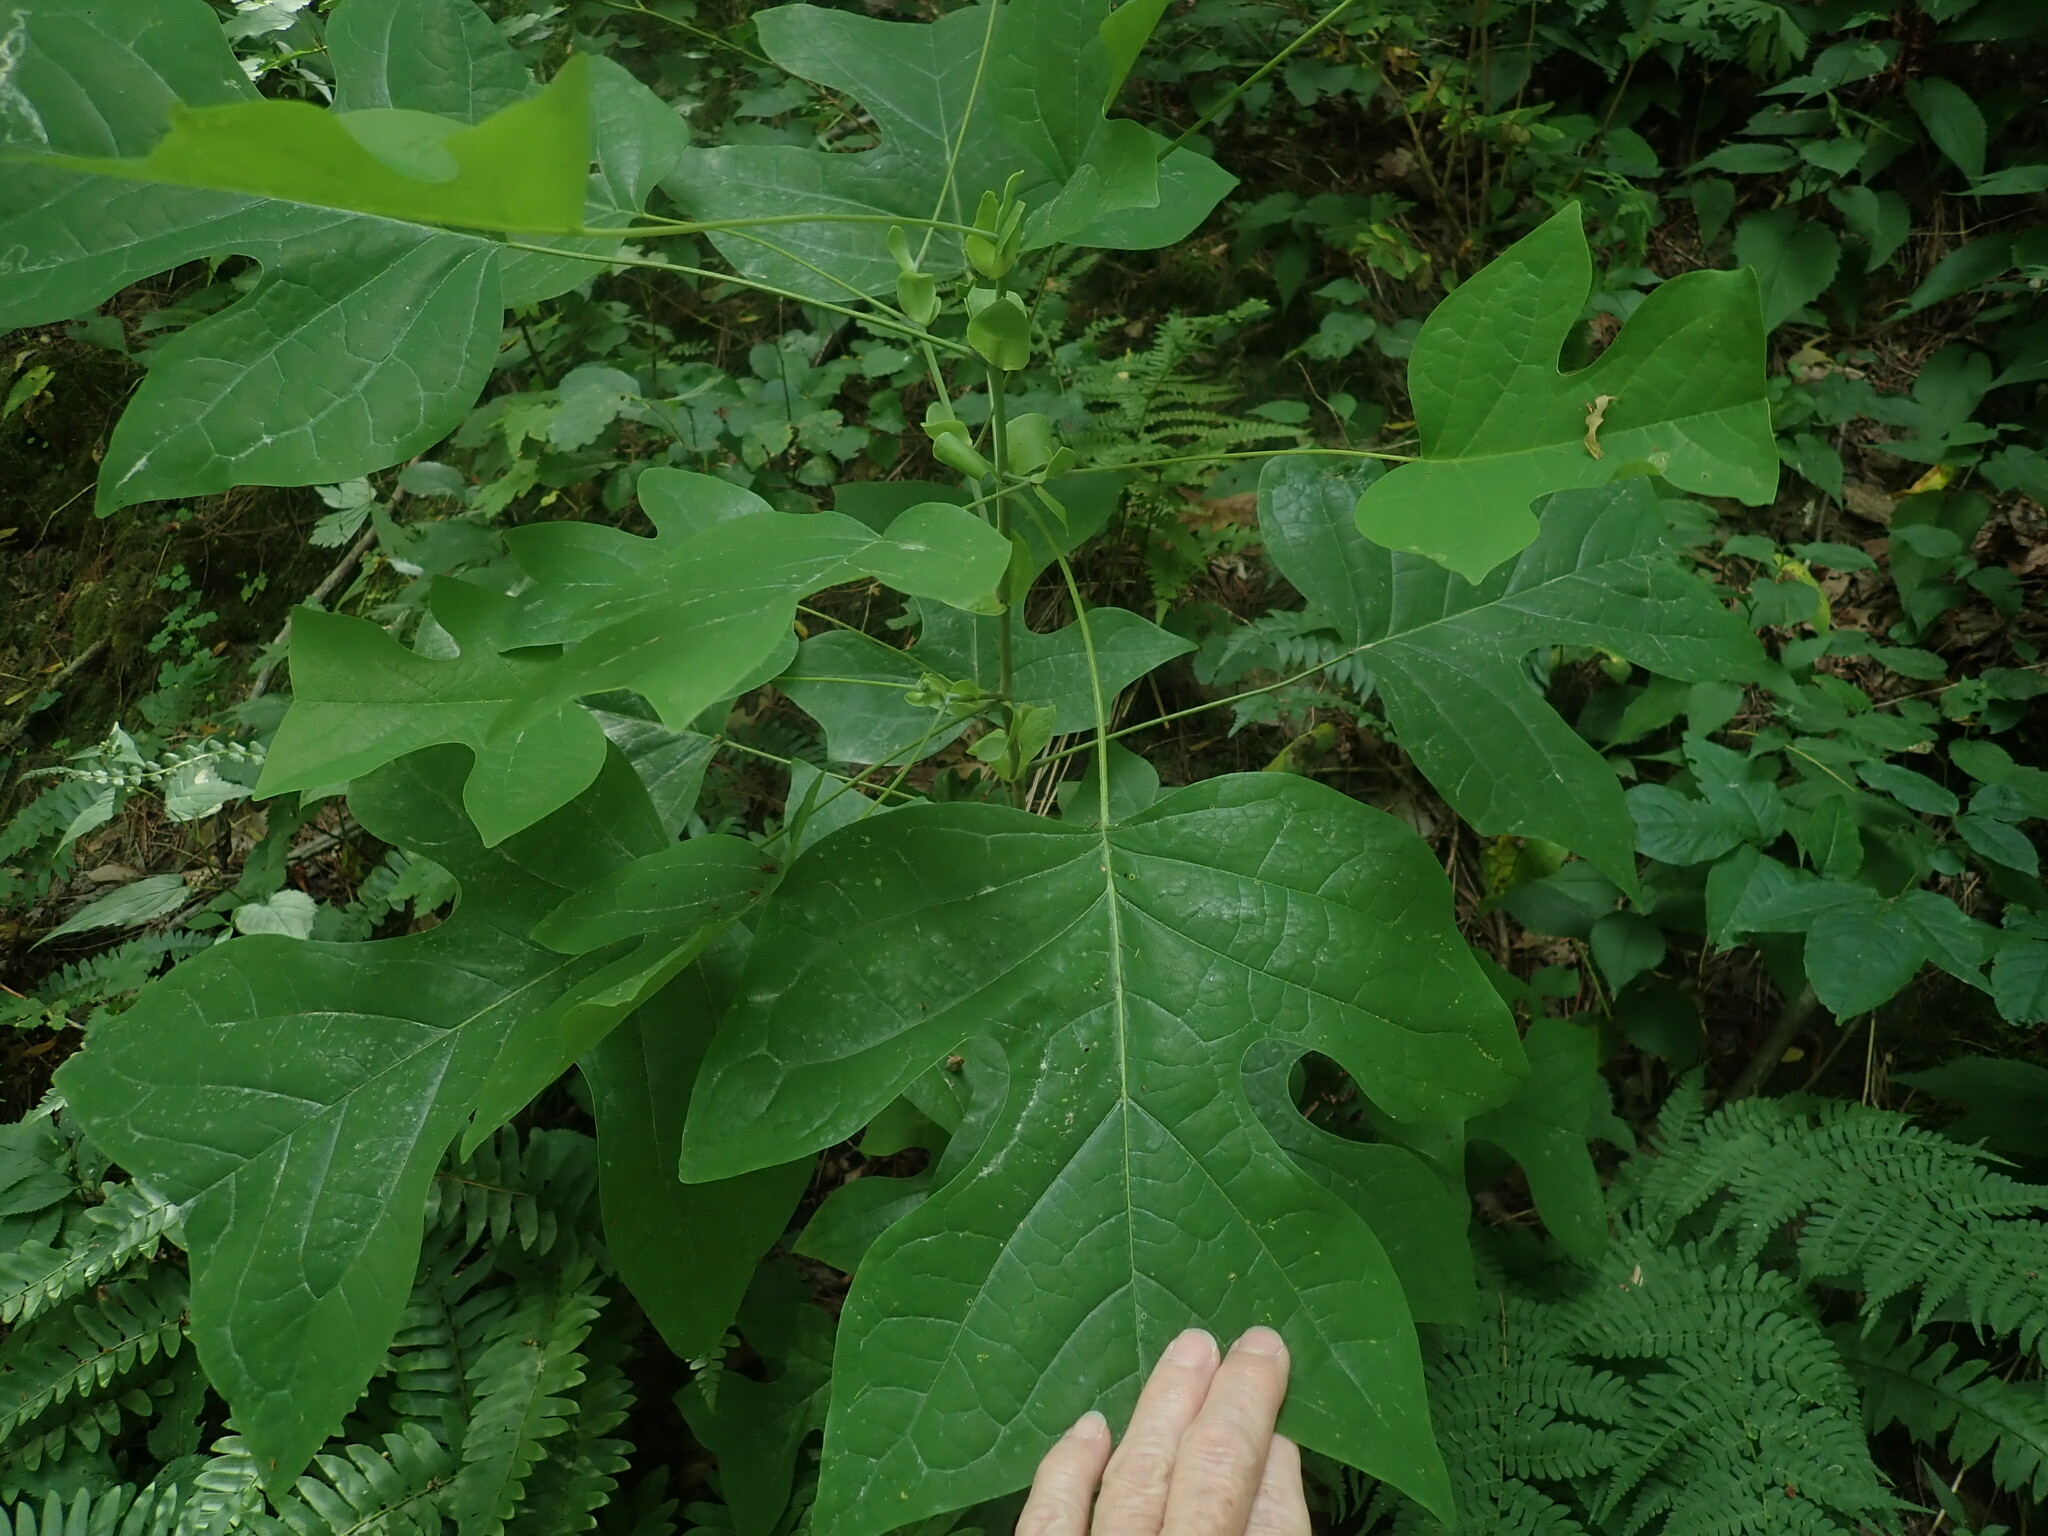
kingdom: Plantae
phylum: Tracheophyta
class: Magnoliopsida
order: Magnoliales
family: Magnoliaceae
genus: Liriodendron
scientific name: Liriodendron tulipifera
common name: Tulip tree
